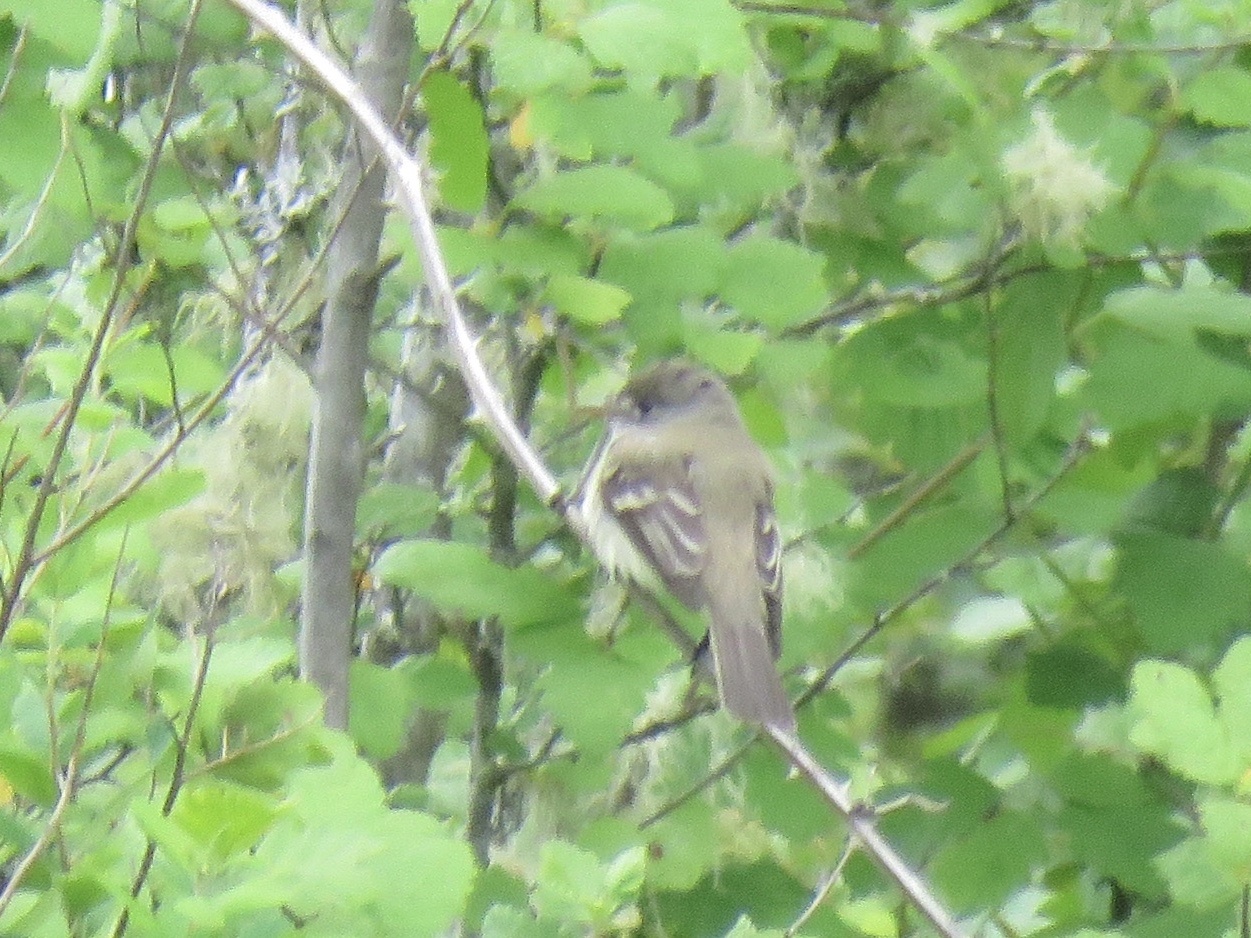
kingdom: Animalia
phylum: Chordata
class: Aves
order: Passeriformes
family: Tyrannidae
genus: Empidonax
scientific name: Empidonax traillii
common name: Willow flycatcher
